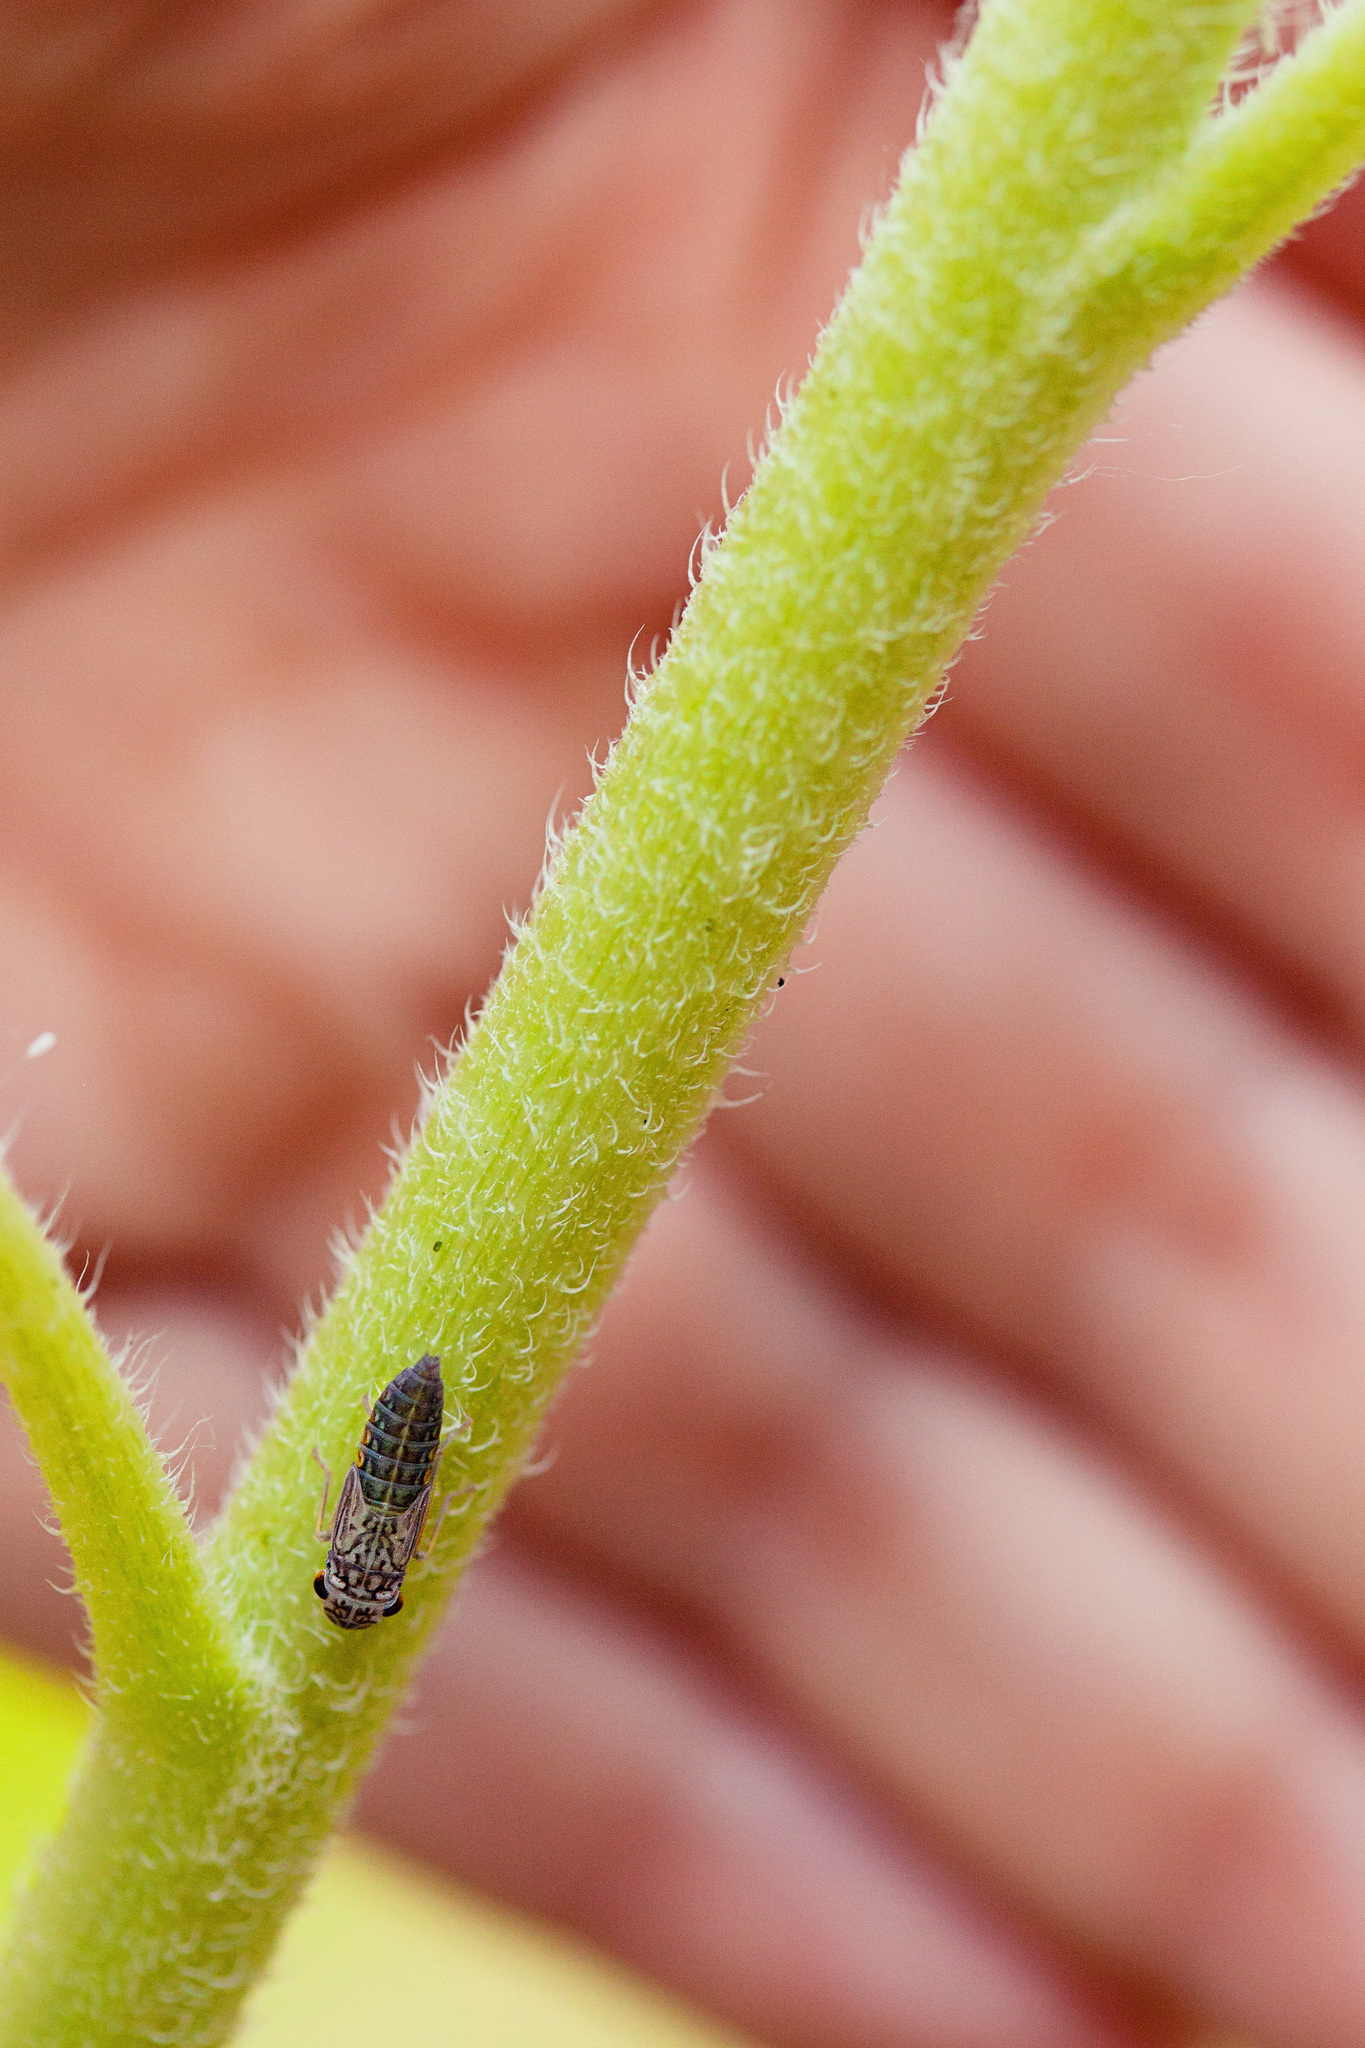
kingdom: Animalia
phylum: Arthropoda
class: Insecta
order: Hemiptera
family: Cicadellidae
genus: Oncometopia
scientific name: Oncometopia orbona
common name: Broad-headed sharpshooter
